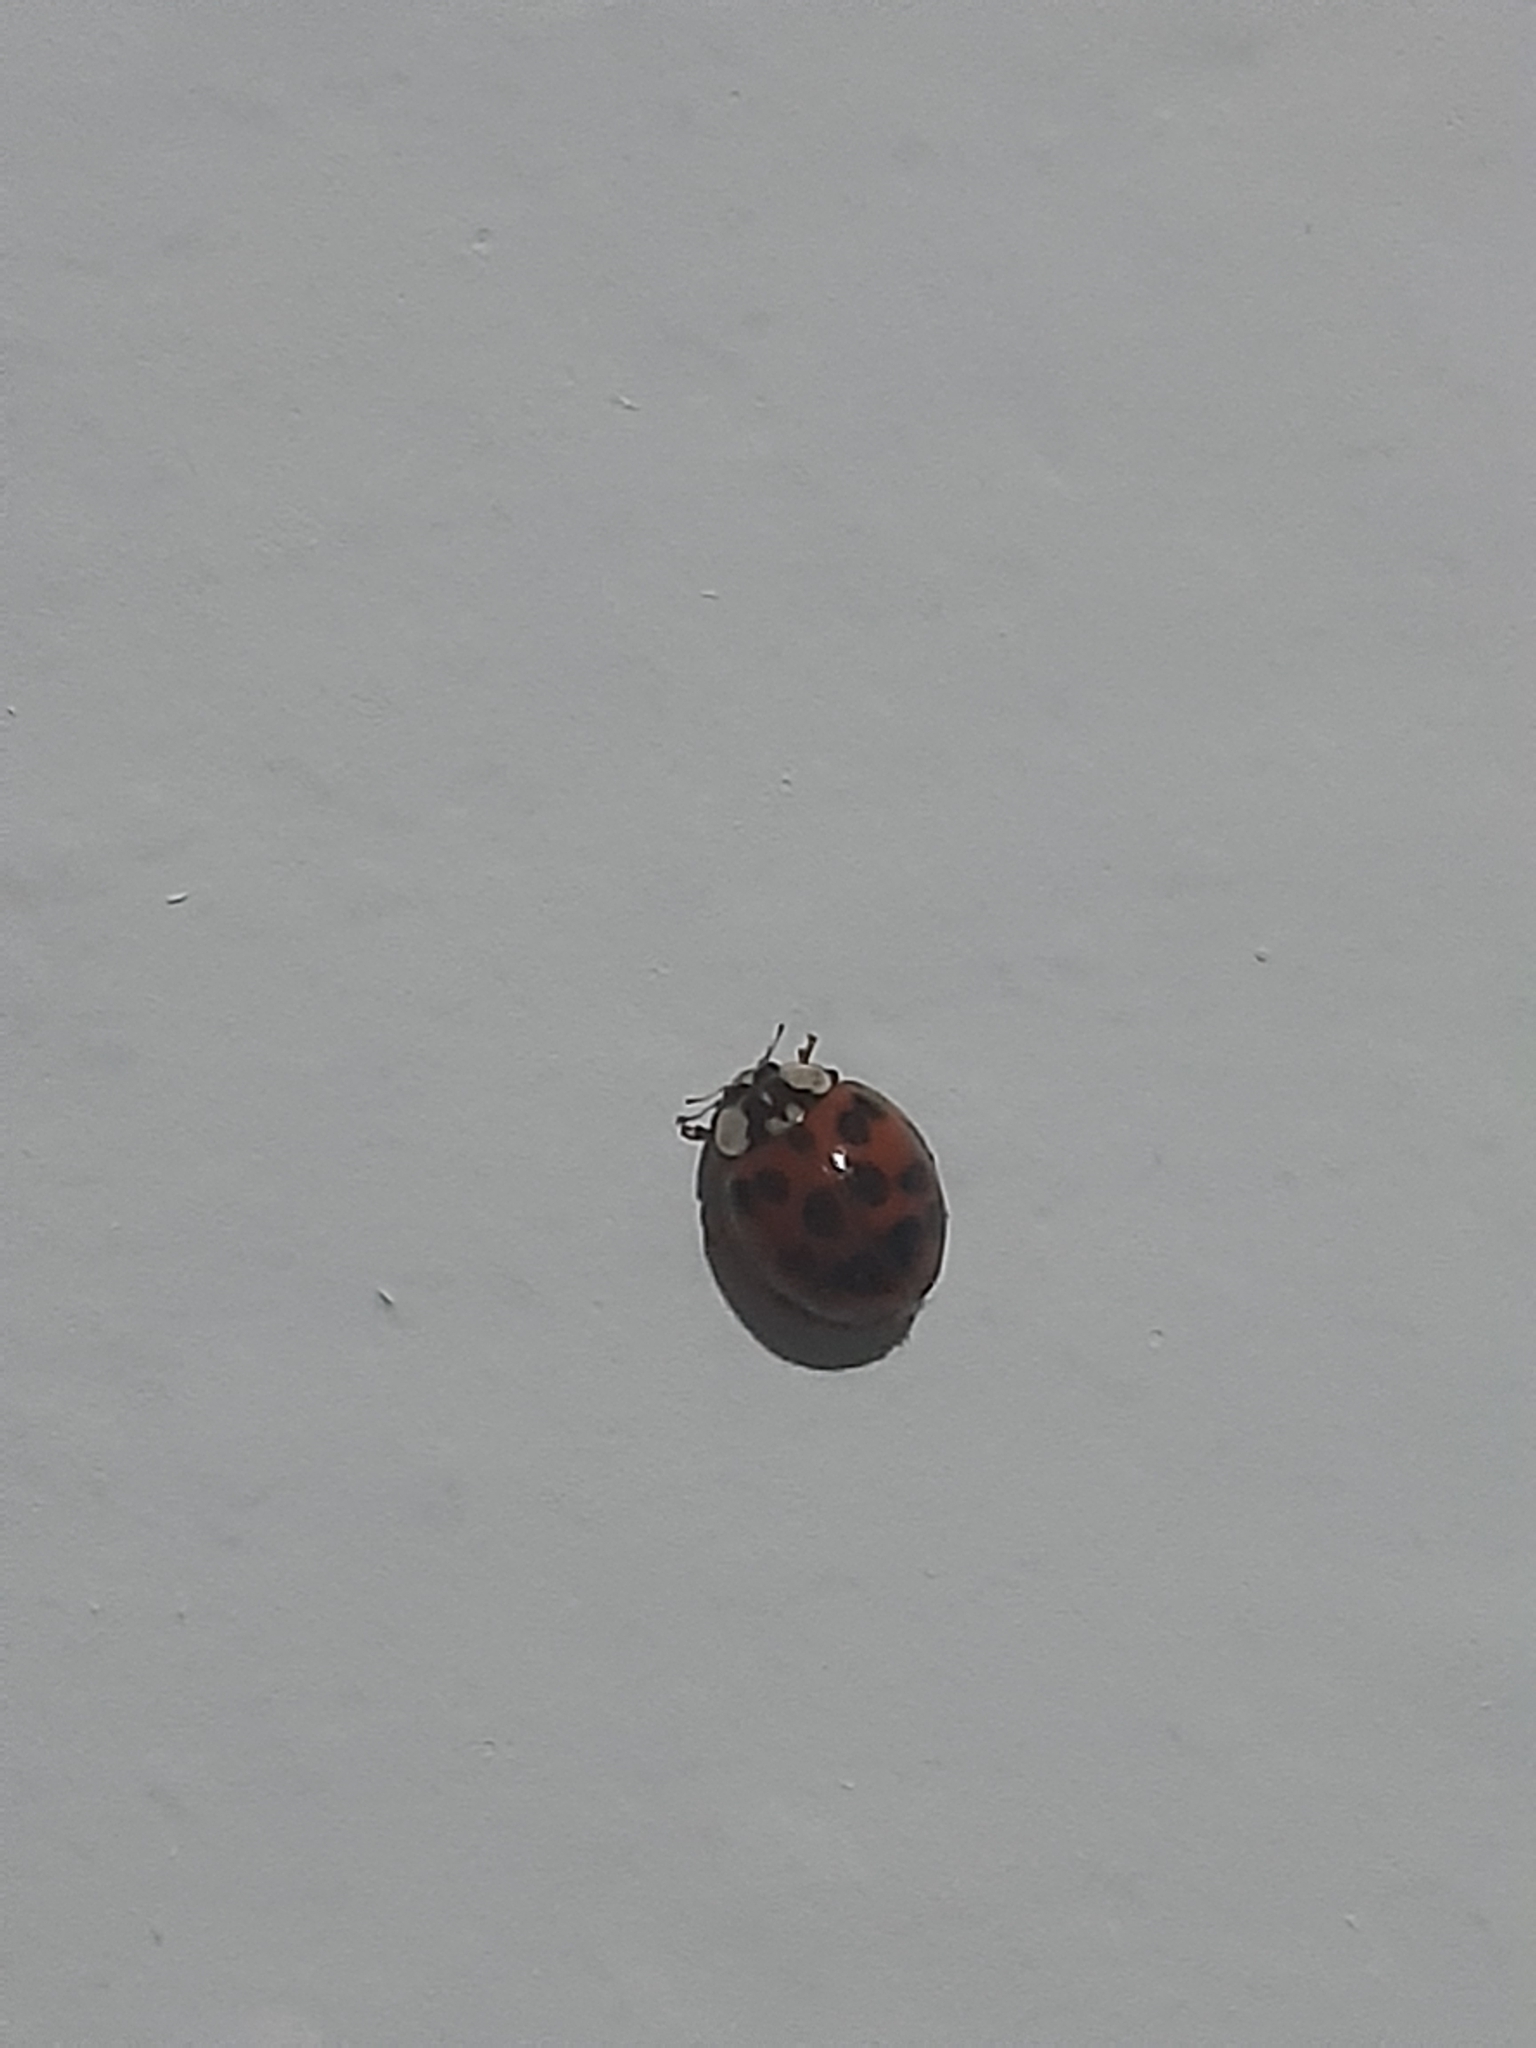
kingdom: Animalia
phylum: Arthropoda
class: Insecta
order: Coleoptera
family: Coccinellidae
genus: Harmonia
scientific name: Harmonia axyridis
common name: Harlequin ladybird
